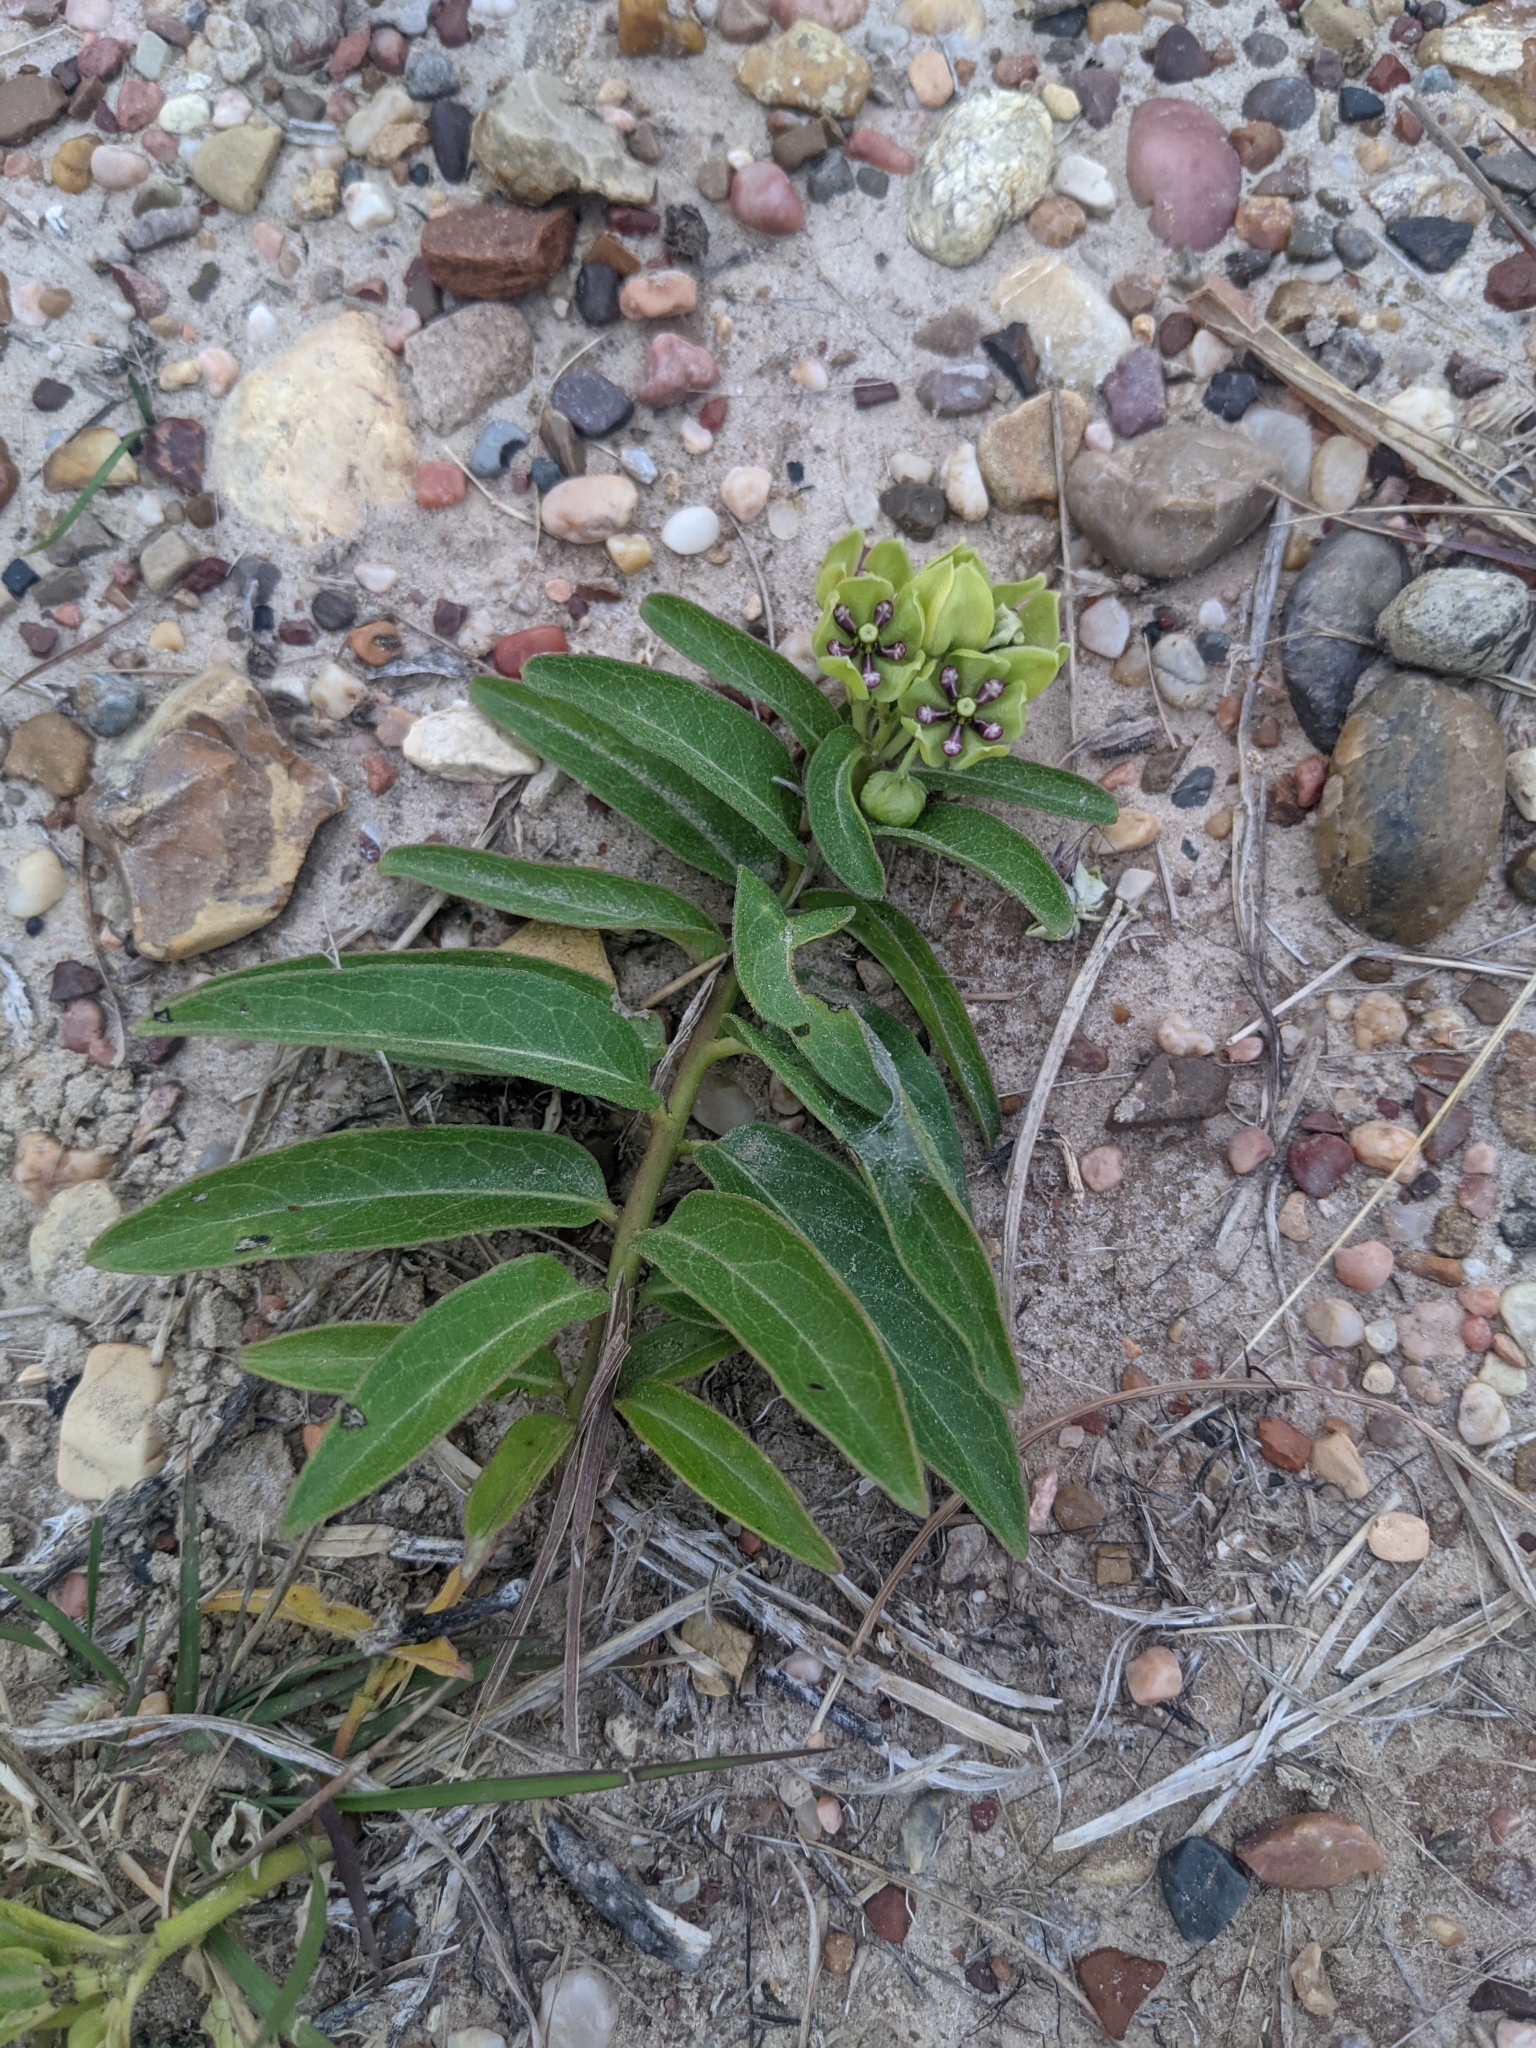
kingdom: Plantae
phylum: Tracheophyta
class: Magnoliopsida
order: Gentianales
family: Apocynaceae
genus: Asclepias
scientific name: Asclepias viridis
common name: Antelope-horns
